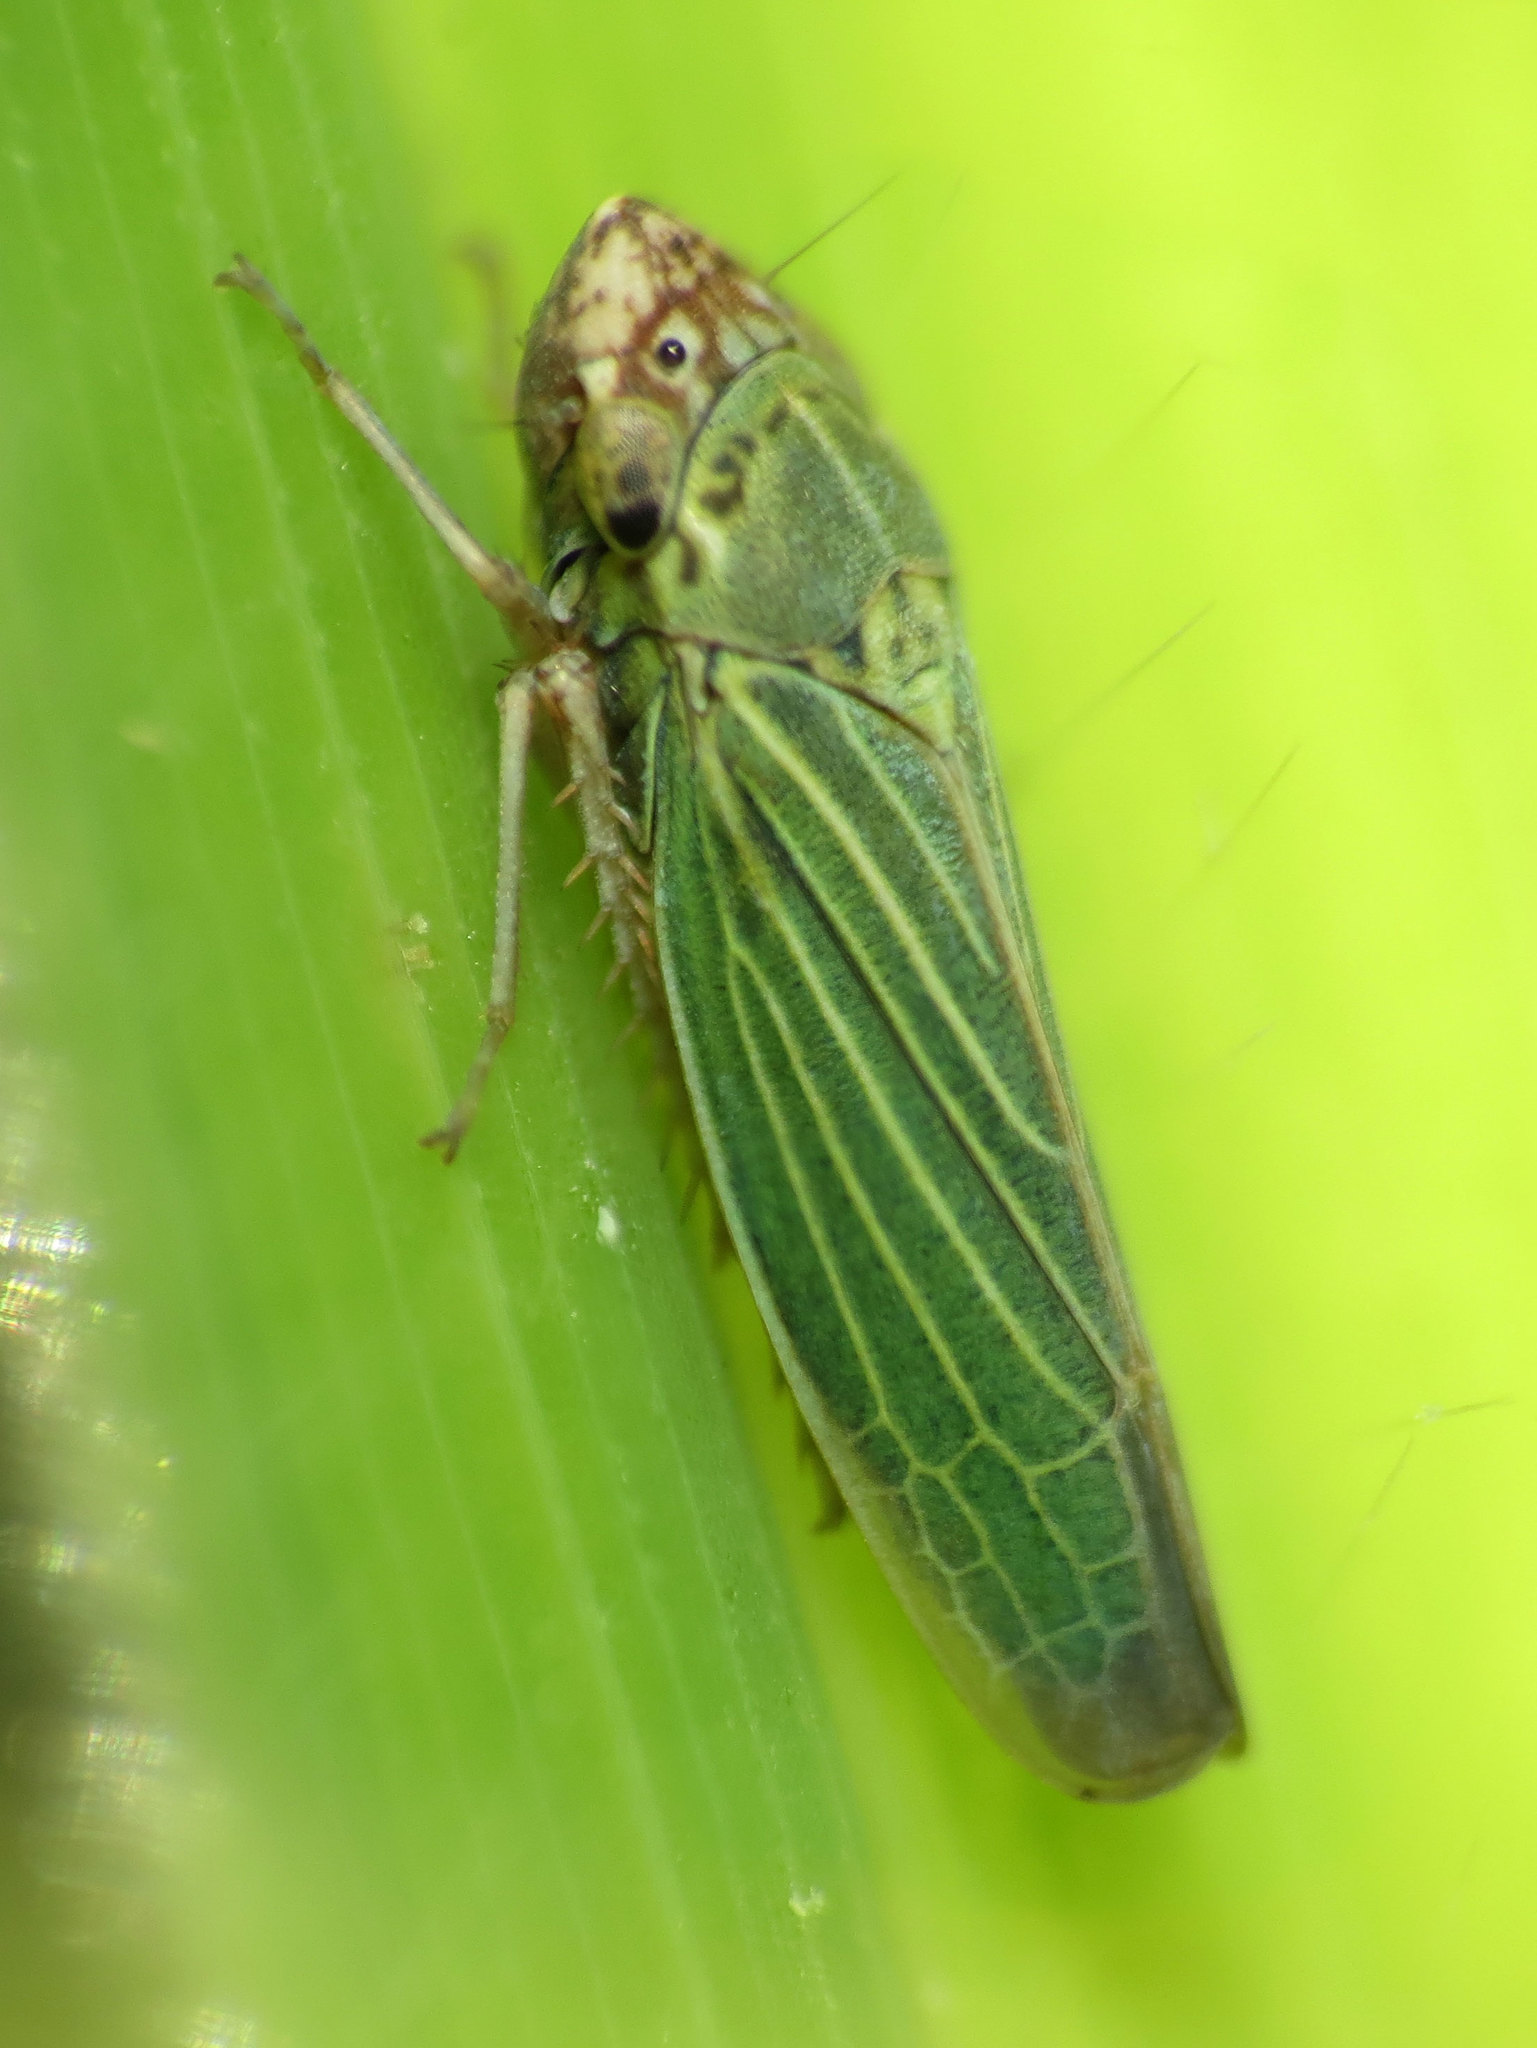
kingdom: Animalia
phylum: Arthropoda
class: Insecta
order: Hemiptera
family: Cicadellidae
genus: Xyphon
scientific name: Xyphon reticulatum
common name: Planthopper
